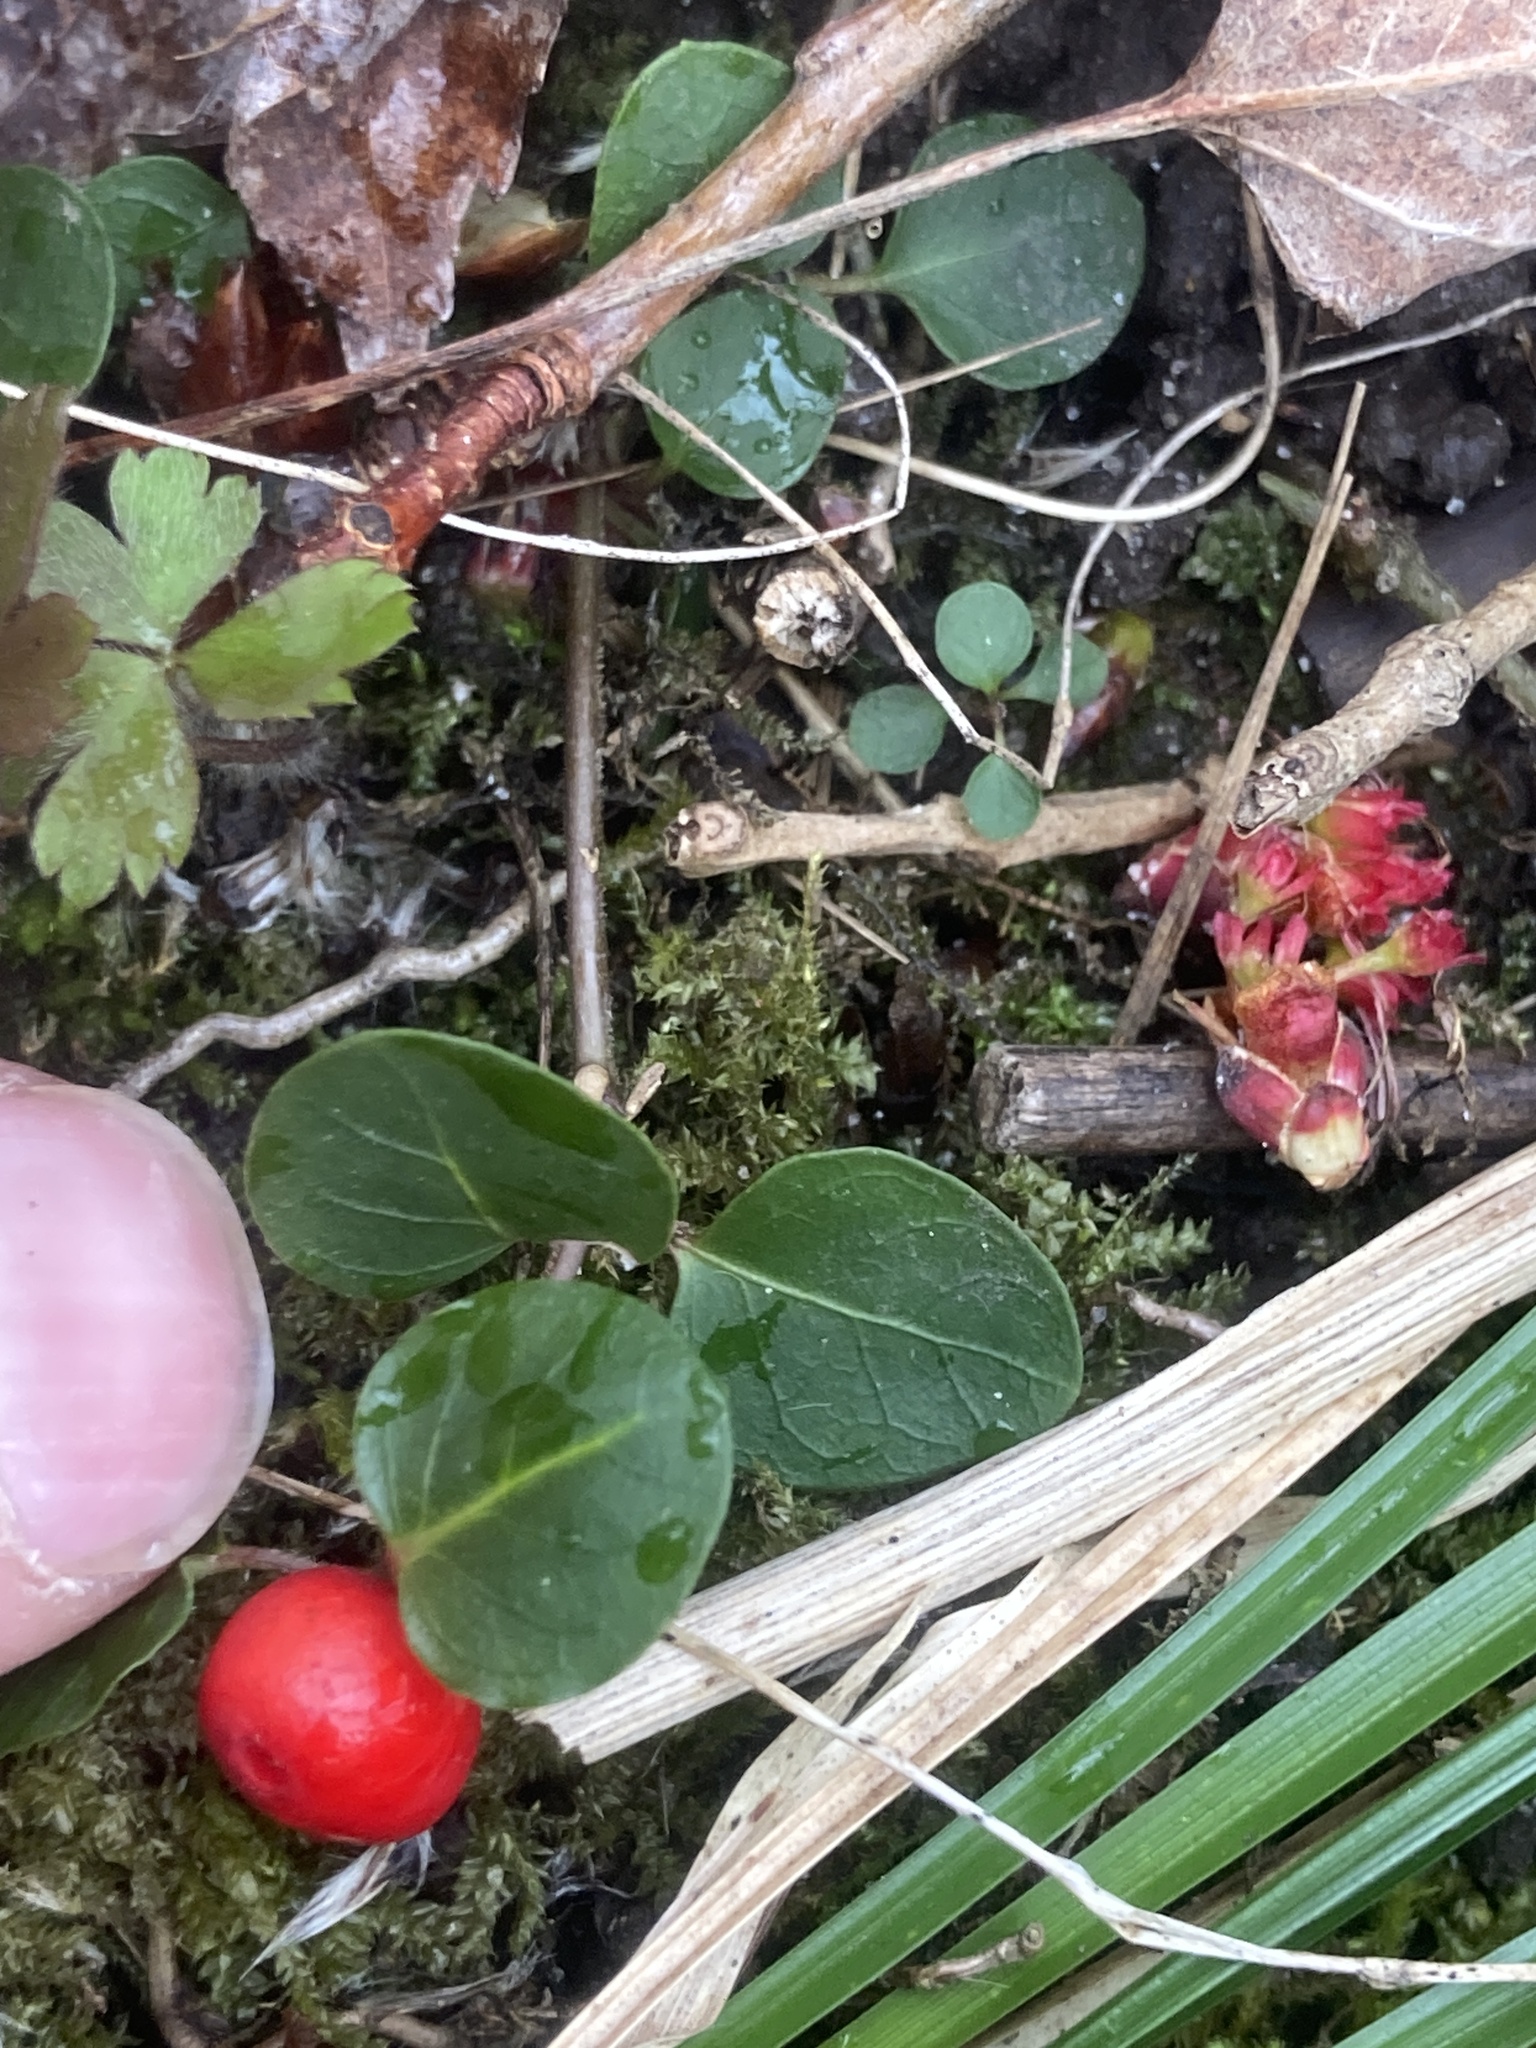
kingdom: Plantae
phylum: Tracheophyta
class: Magnoliopsida
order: Gentianales
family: Rubiaceae
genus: Mitchella
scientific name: Mitchella repens
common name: Partridge-berry
